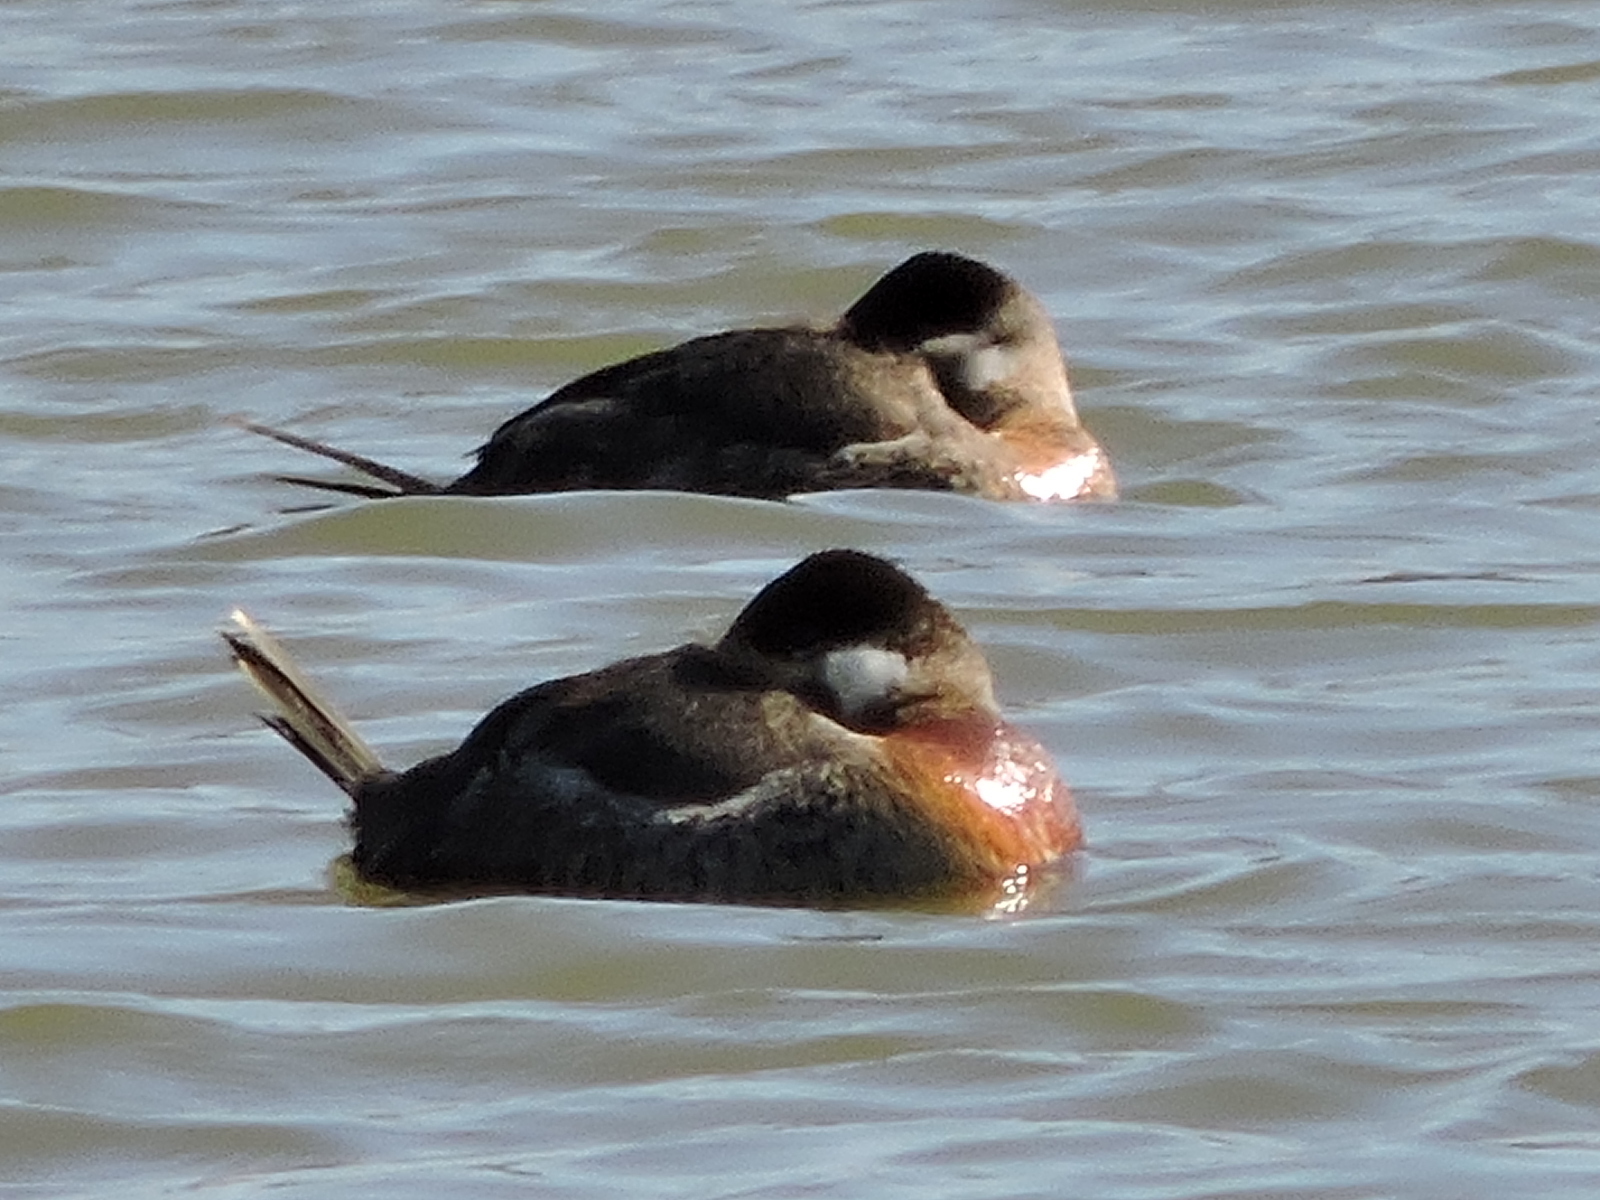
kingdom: Animalia
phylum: Chordata
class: Aves
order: Anseriformes
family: Anatidae
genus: Oxyura
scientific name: Oxyura jamaicensis
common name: Ruddy duck
